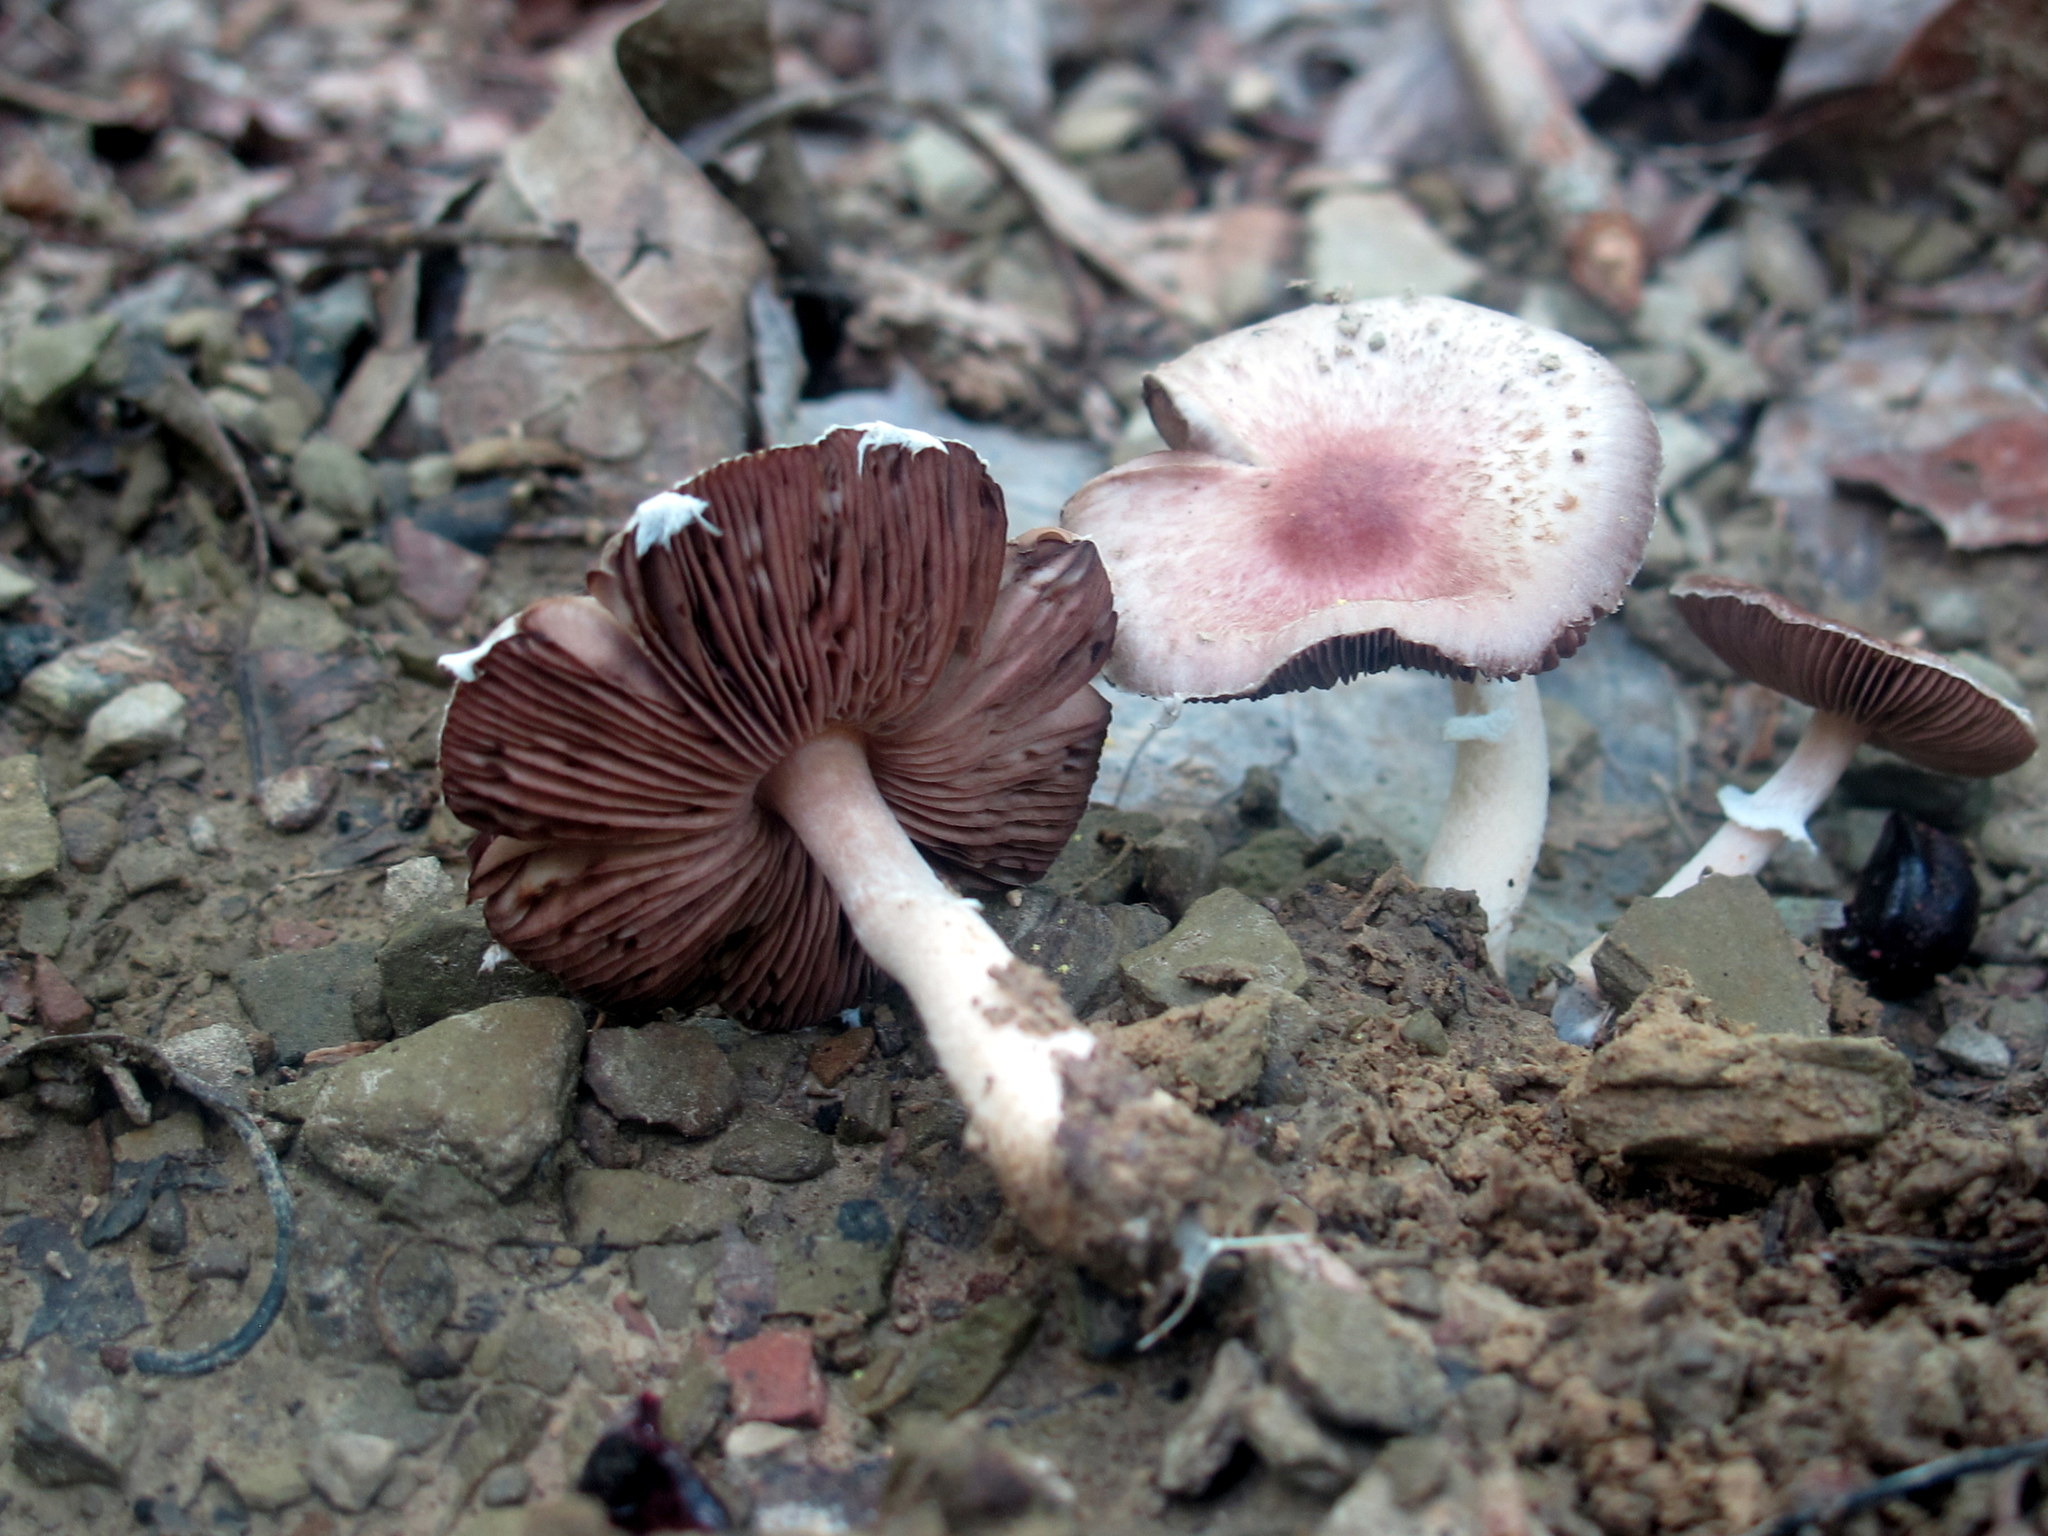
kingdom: Fungi
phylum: Basidiomycota
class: Agaricomycetes
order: Agaricales
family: Agaricaceae
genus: Agaricus
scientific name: Agaricus diminutivus
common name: Diminutive agaricus
